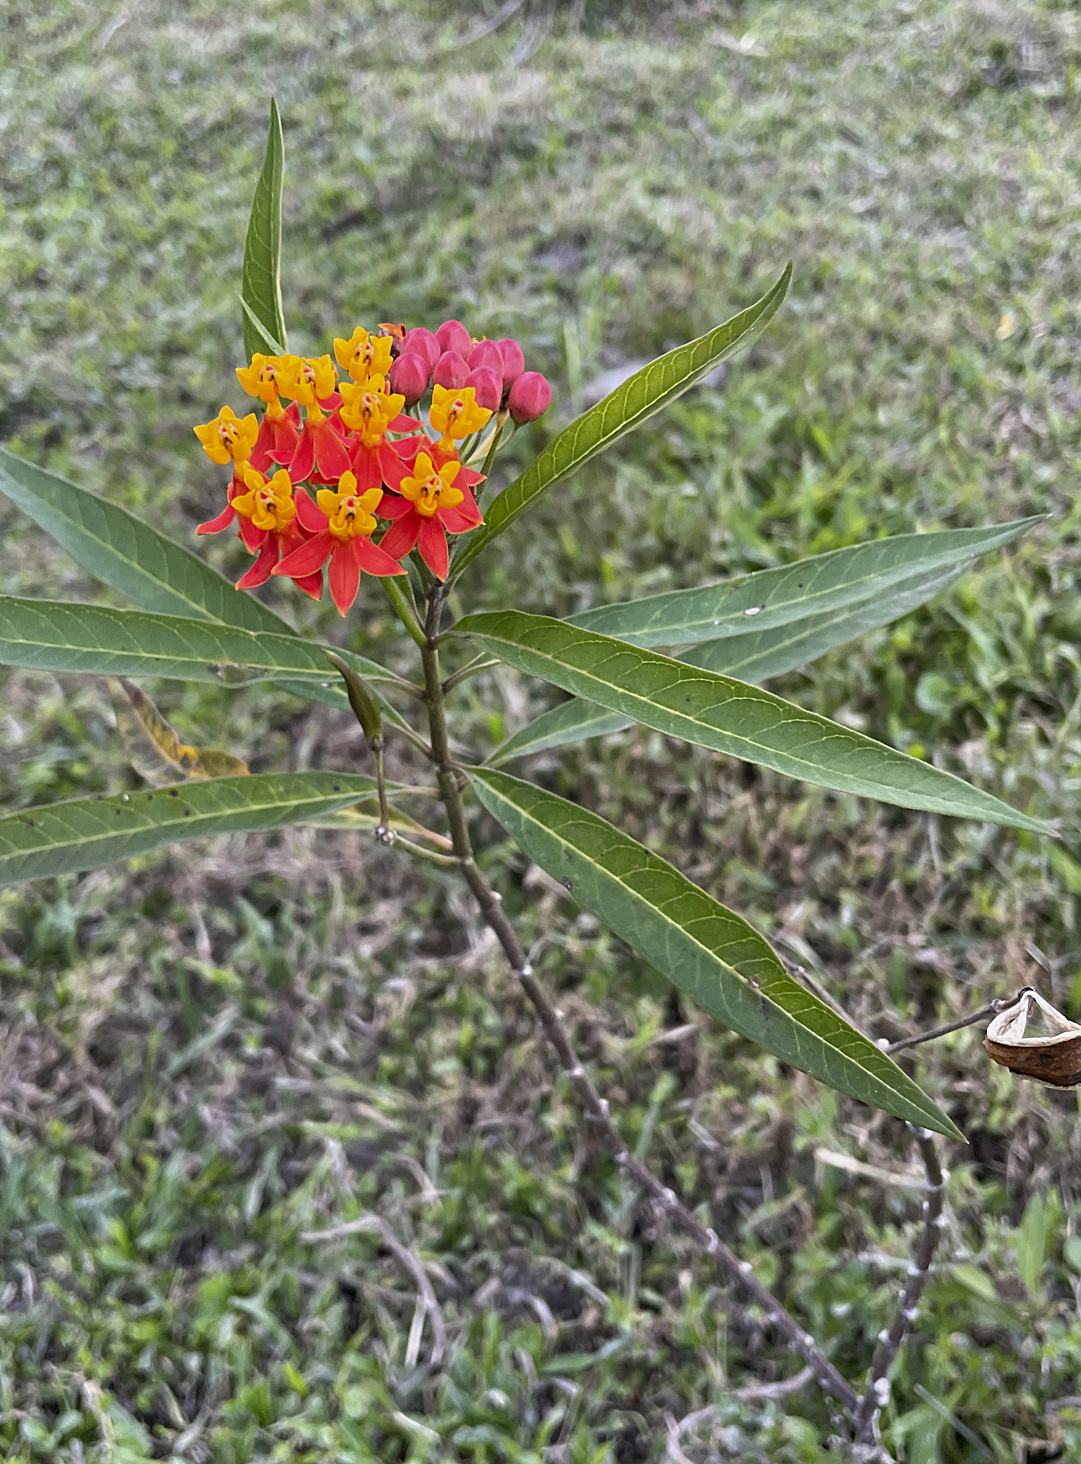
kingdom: Plantae
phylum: Tracheophyta
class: Magnoliopsida
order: Gentianales
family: Apocynaceae
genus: Asclepias
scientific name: Asclepias curassavica
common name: Bloodflower
